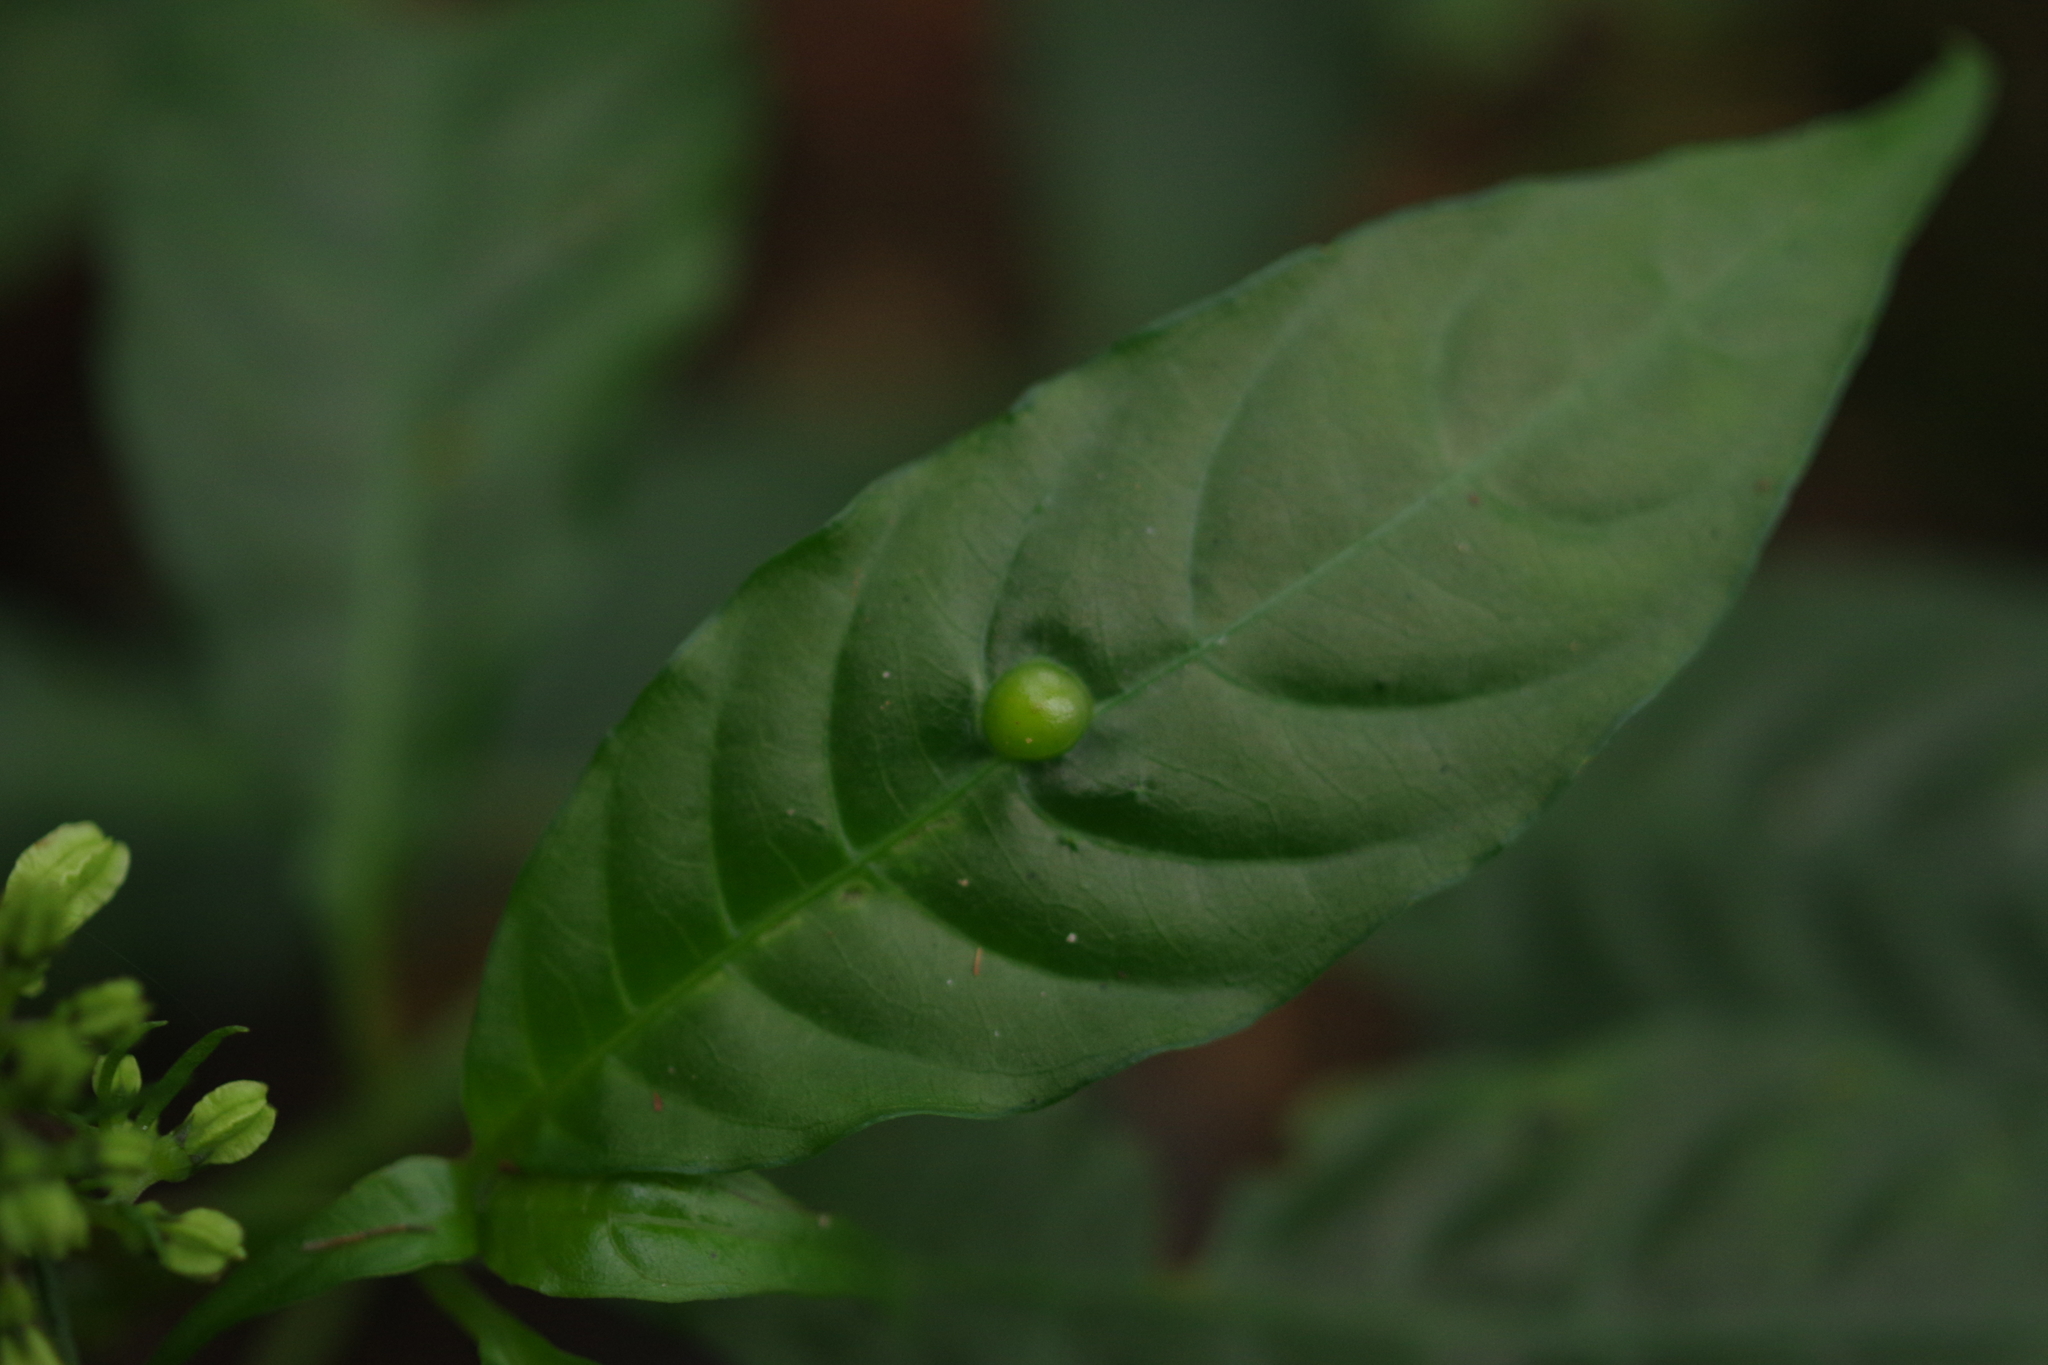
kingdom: Plantae
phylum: Tracheophyta
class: Magnoliopsida
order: Gentianales
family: Rubiaceae
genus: Ophiorrhiza
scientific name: Ophiorrhiza japonica
